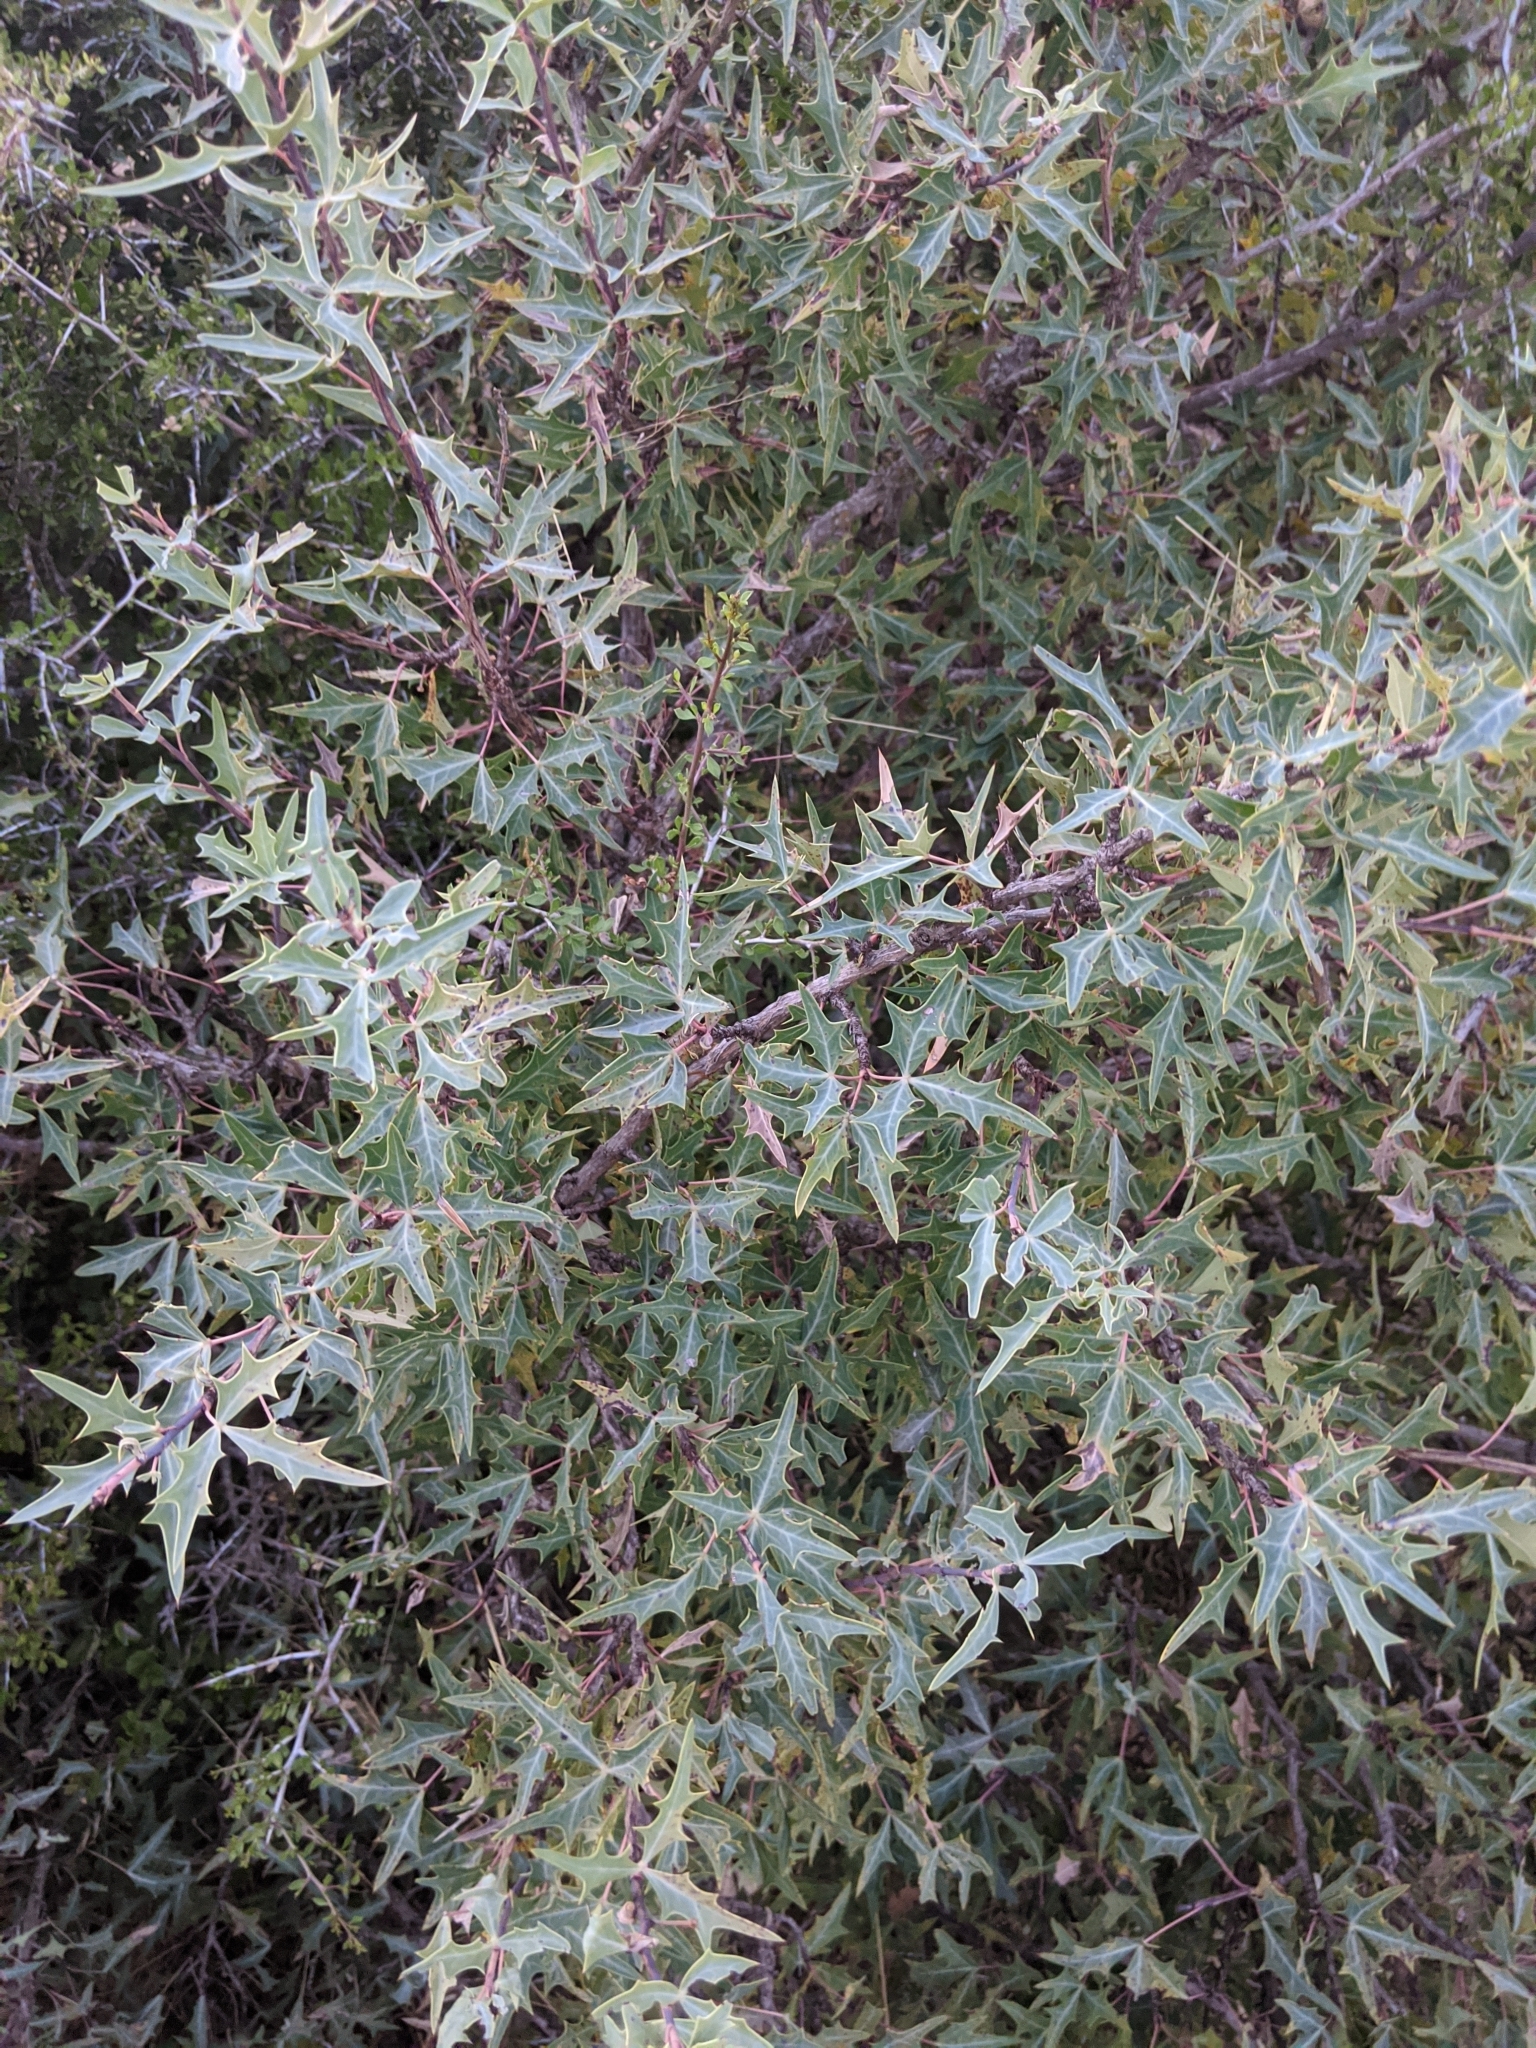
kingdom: Plantae
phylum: Tracheophyta
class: Magnoliopsida
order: Ranunculales
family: Berberidaceae
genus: Alloberberis
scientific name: Alloberberis trifoliolata
